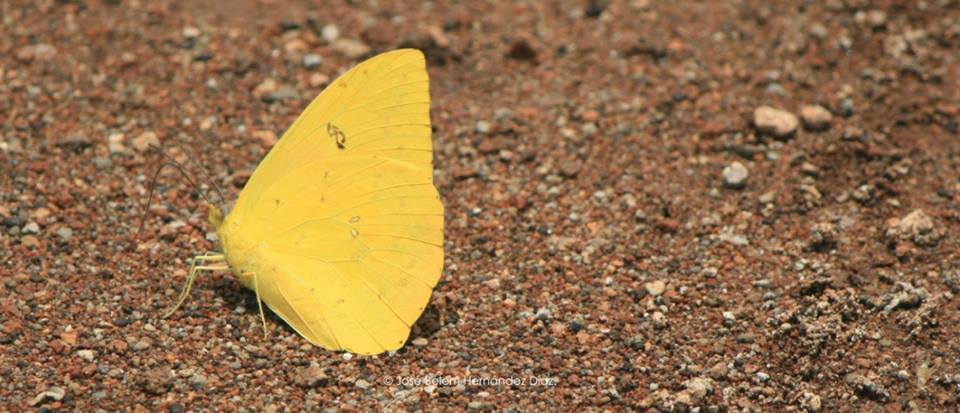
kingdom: Animalia
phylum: Arthropoda
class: Insecta
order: Lepidoptera
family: Pieridae
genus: Phoebis
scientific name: Phoebis philea
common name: Orange-barred giant sulphur
